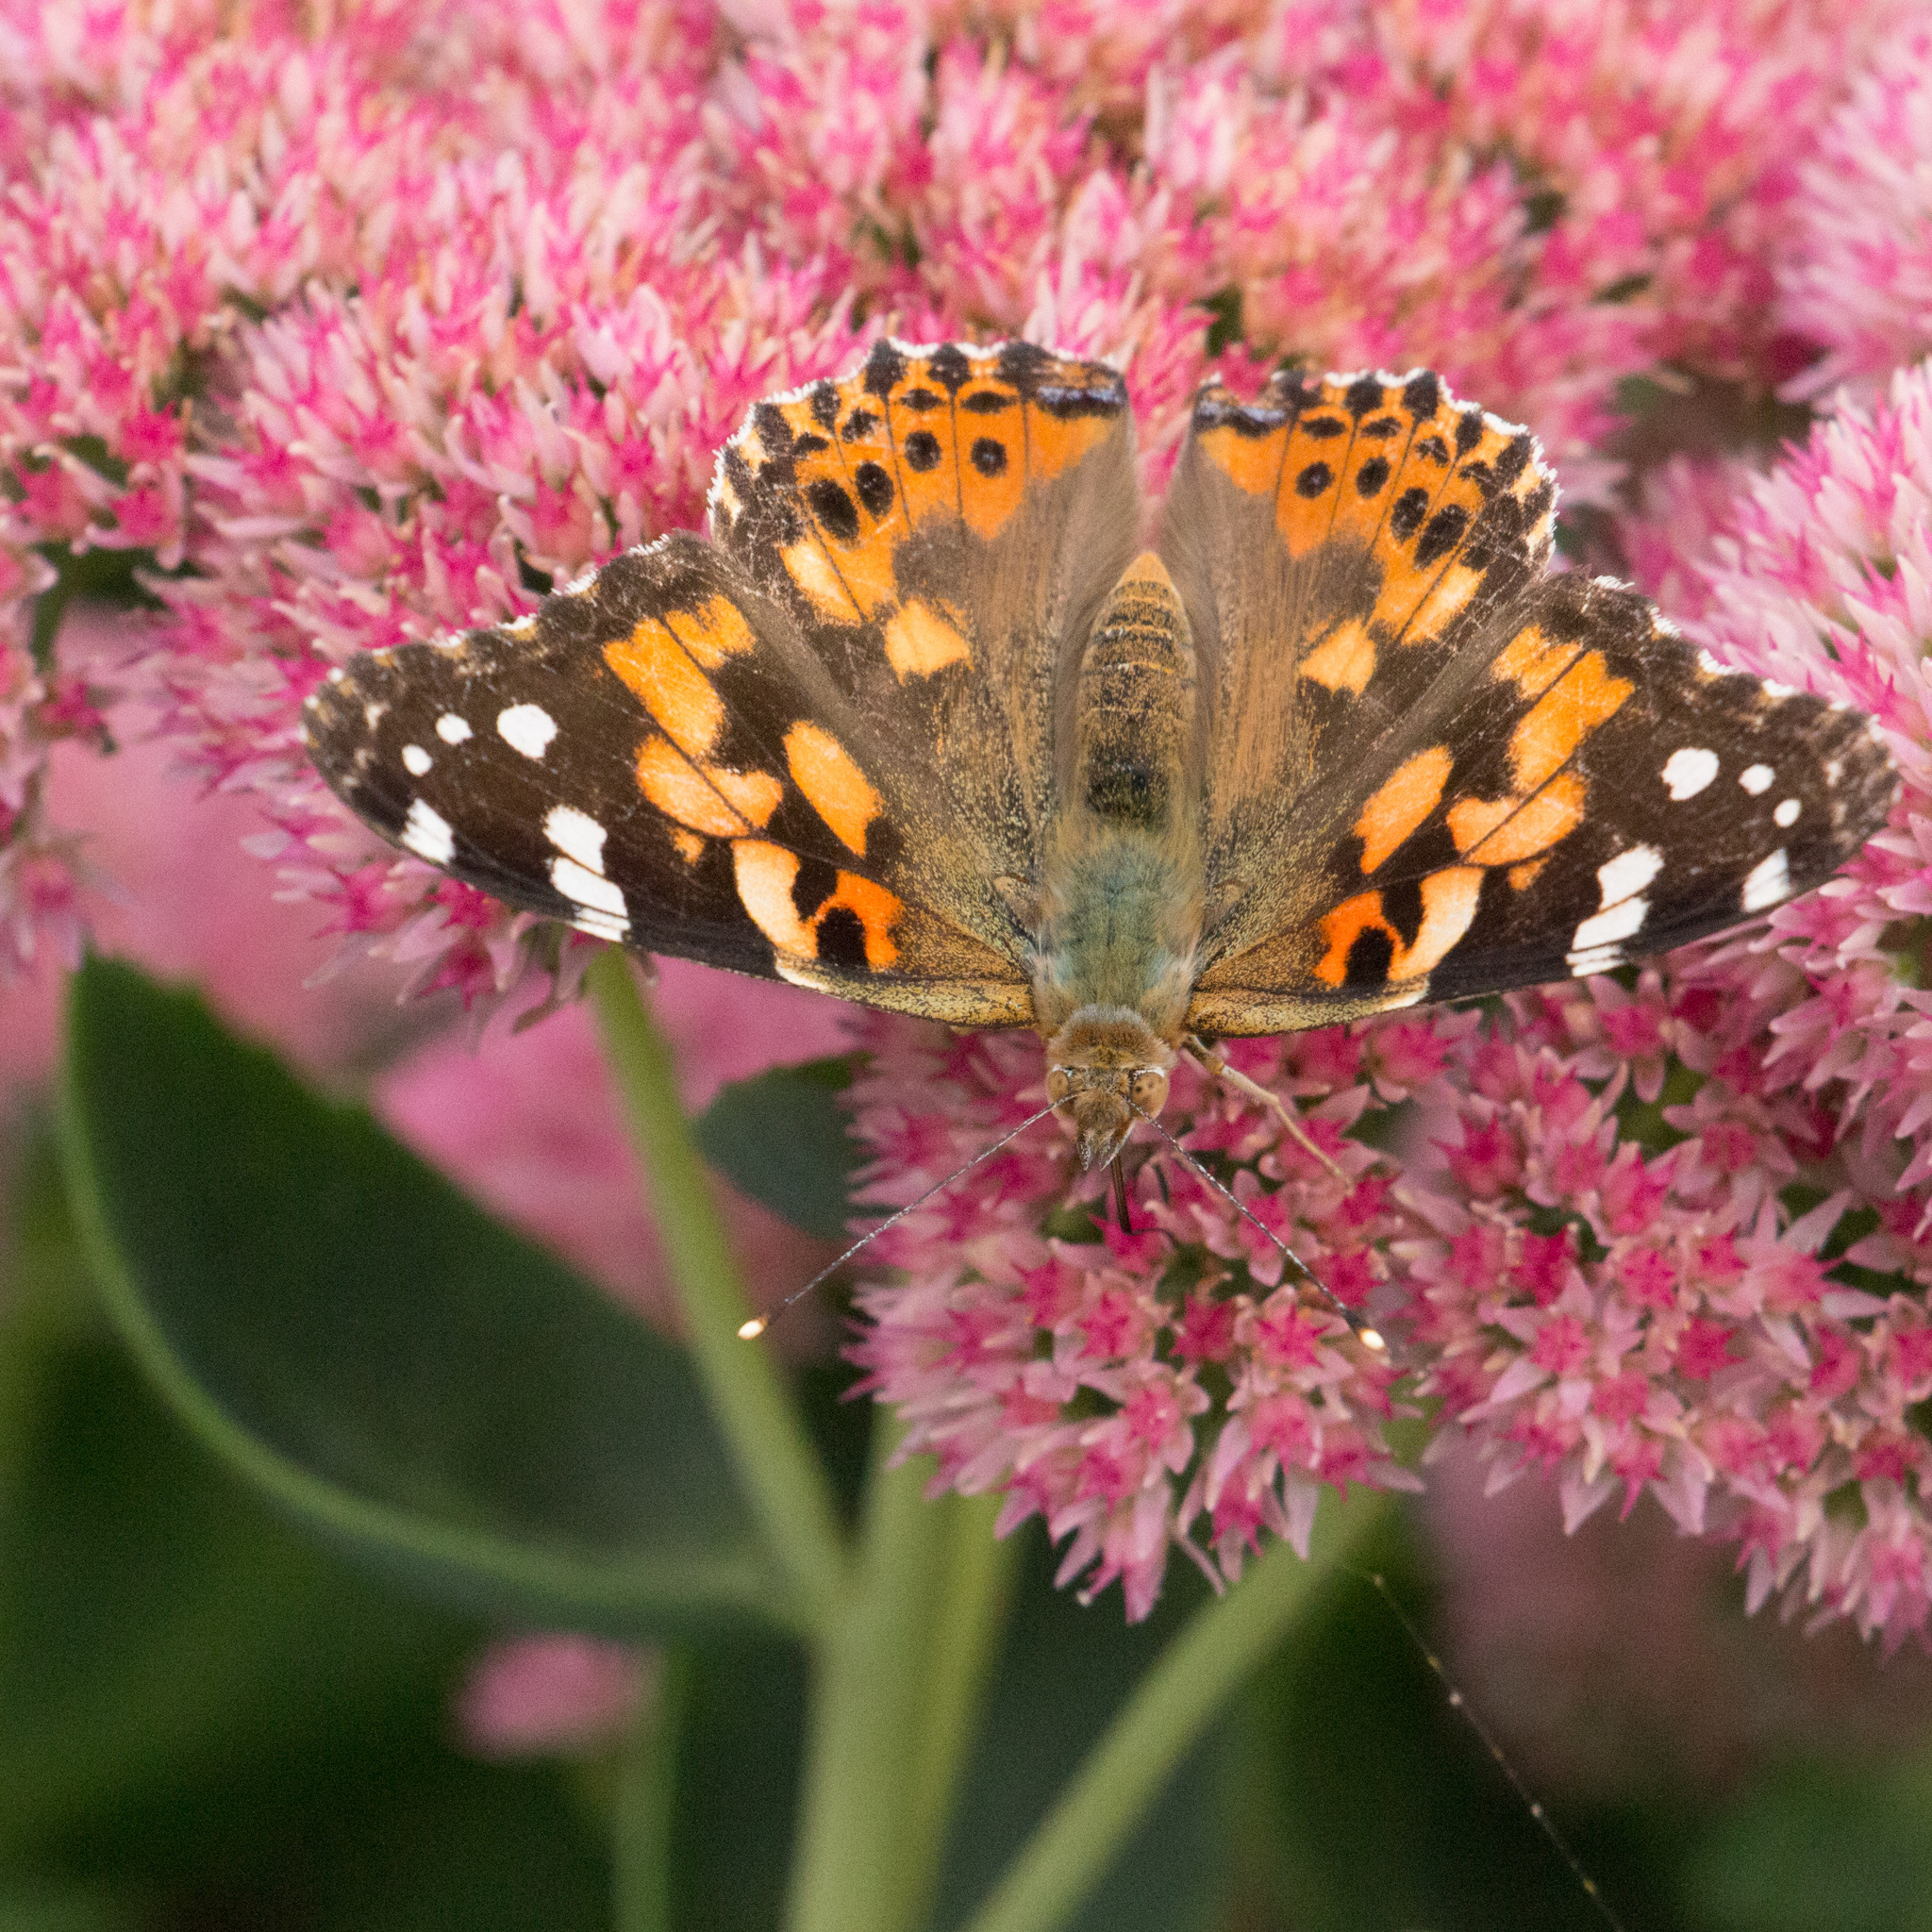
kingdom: Animalia
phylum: Arthropoda
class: Insecta
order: Lepidoptera
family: Nymphalidae
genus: Vanessa
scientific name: Vanessa cardui
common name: Painted lady
